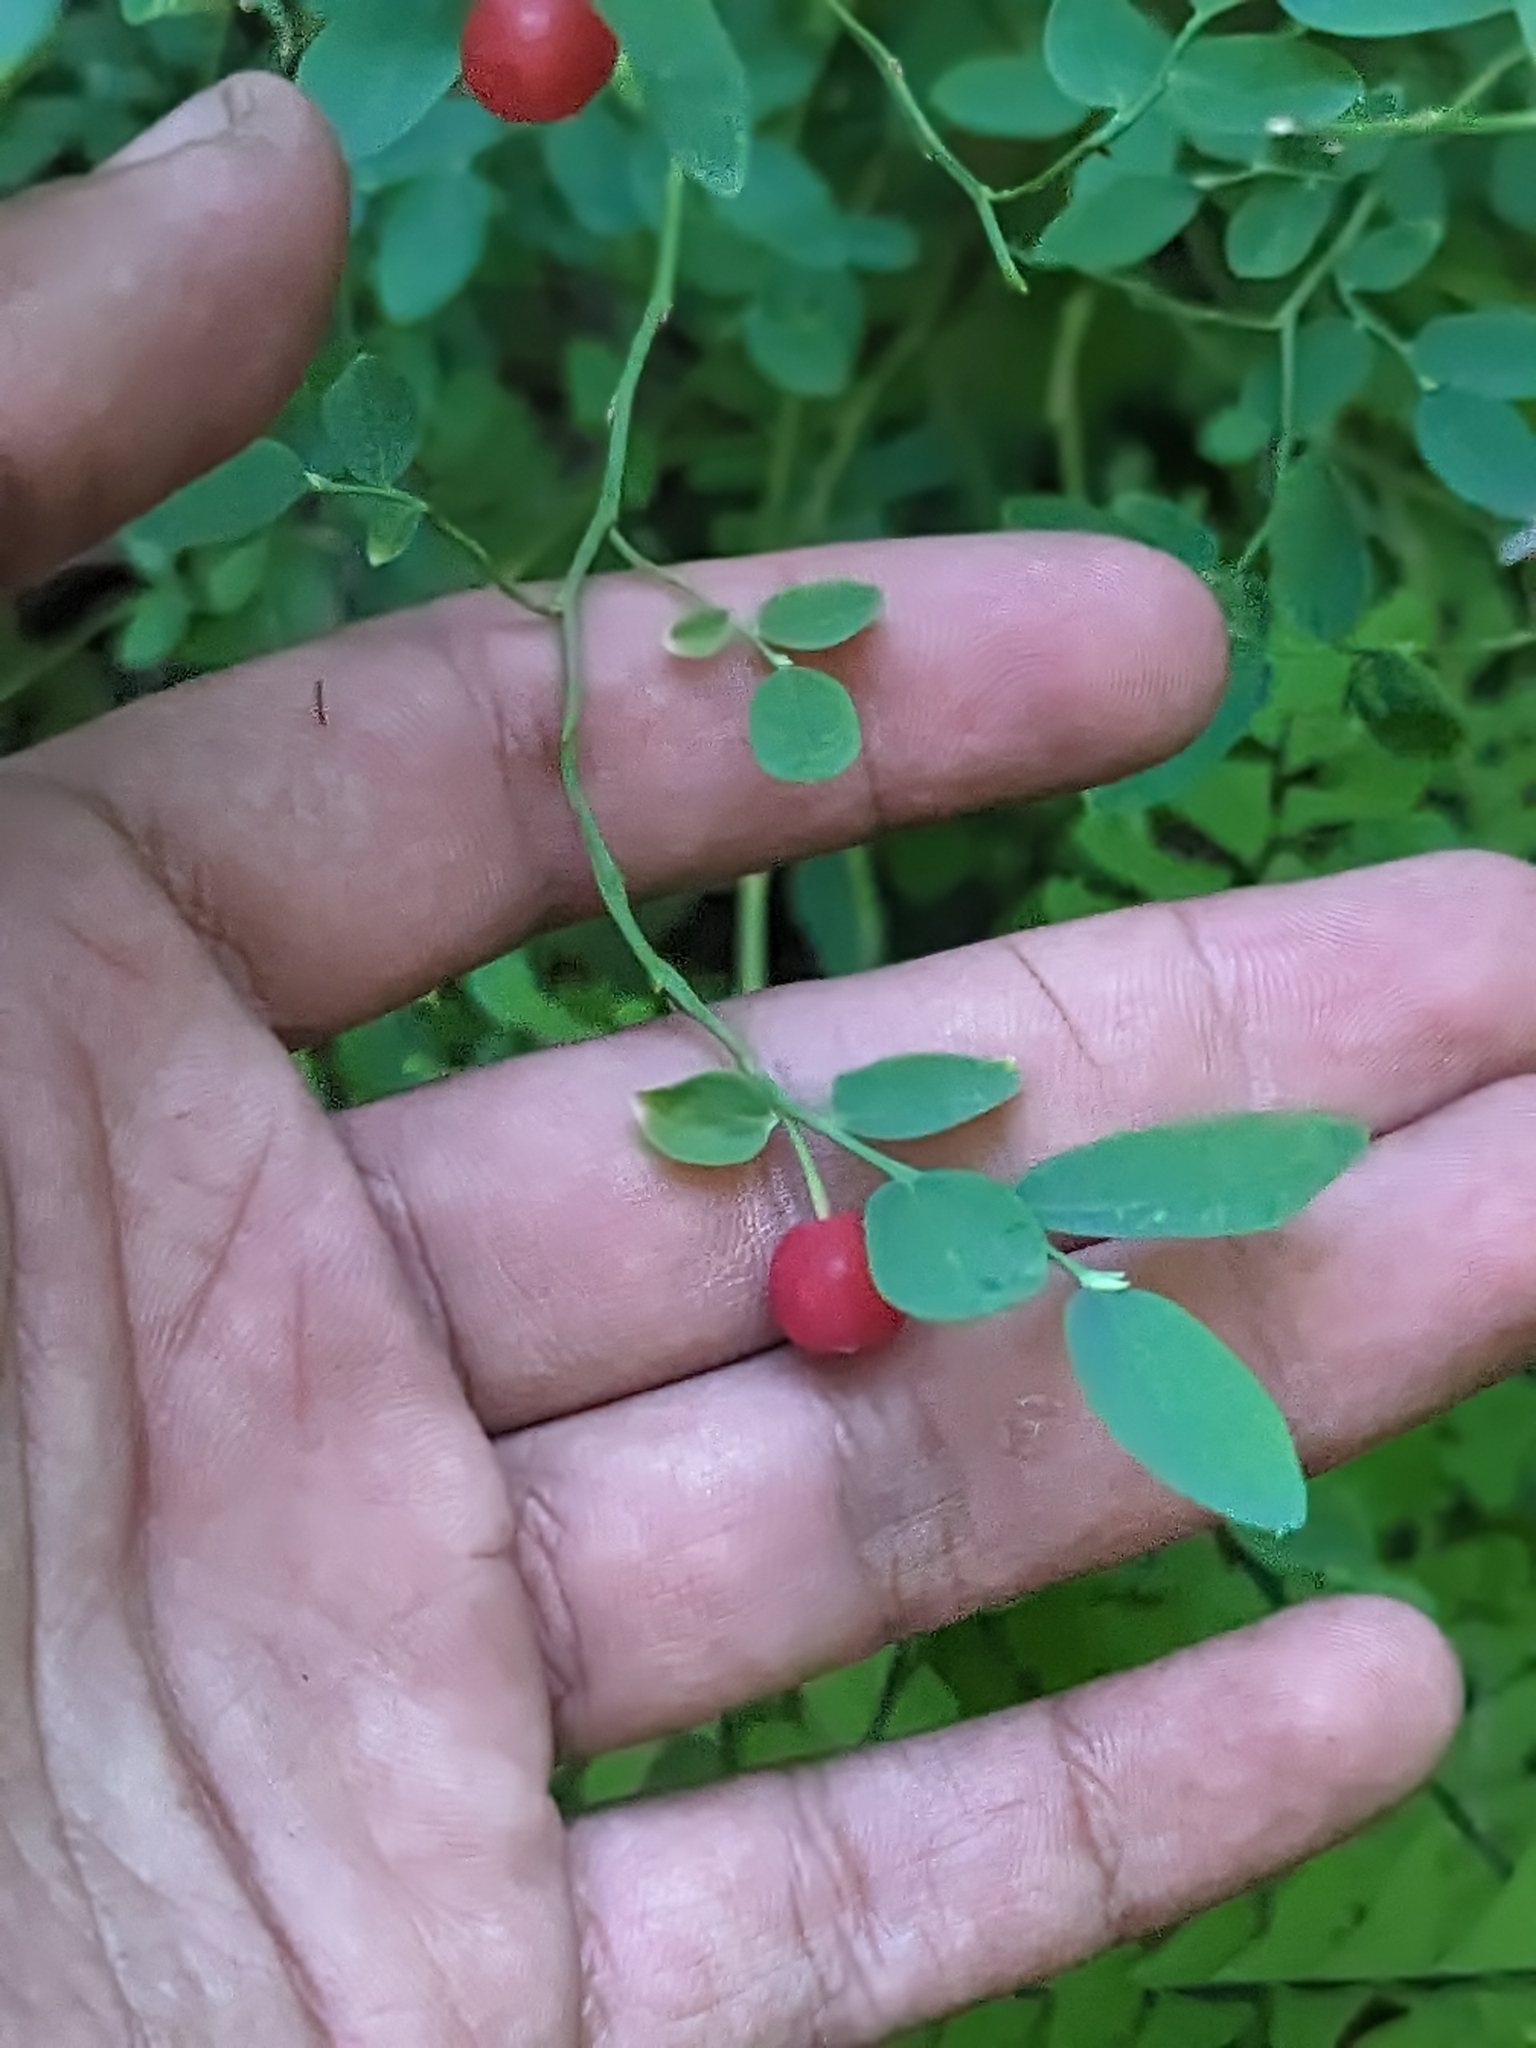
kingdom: Plantae
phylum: Tracheophyta
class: Magnoliopsida
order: Ericales
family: Ericaceae
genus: Vaccinium
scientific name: Vaccinium parvifolium
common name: Red-huckleberry
